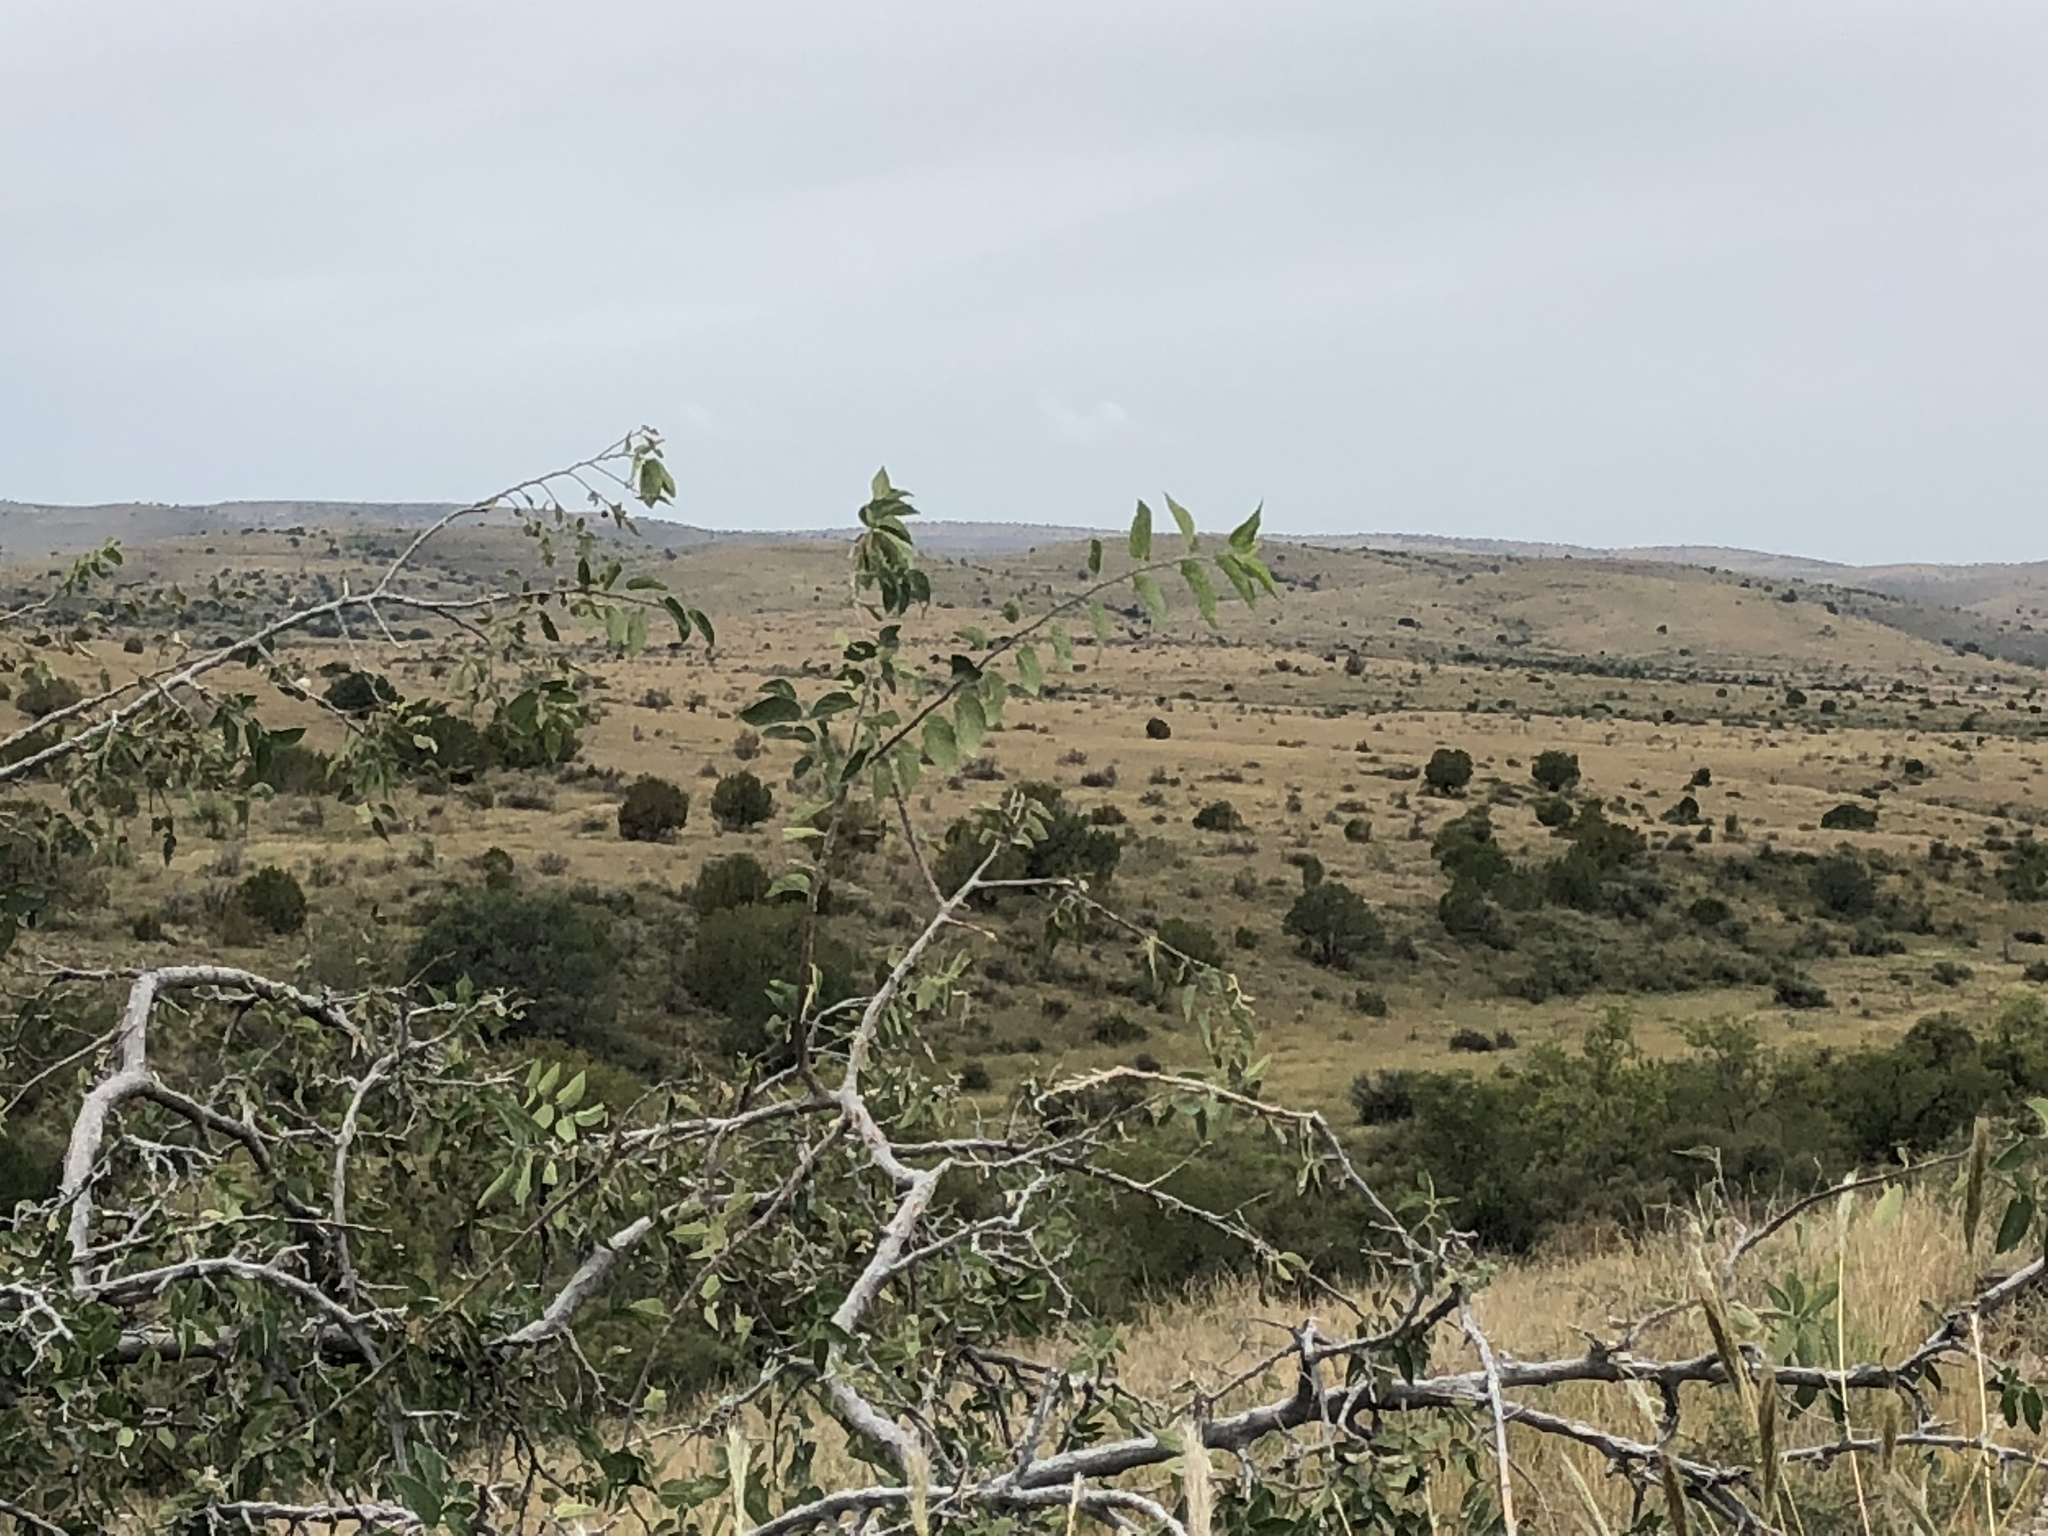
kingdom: Plantae
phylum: Tracheophyta
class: Magnoliopsida
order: Rosales
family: Cannabaceae
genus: Celtis
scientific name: Celtis reticulata
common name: Netleaf hackberry
